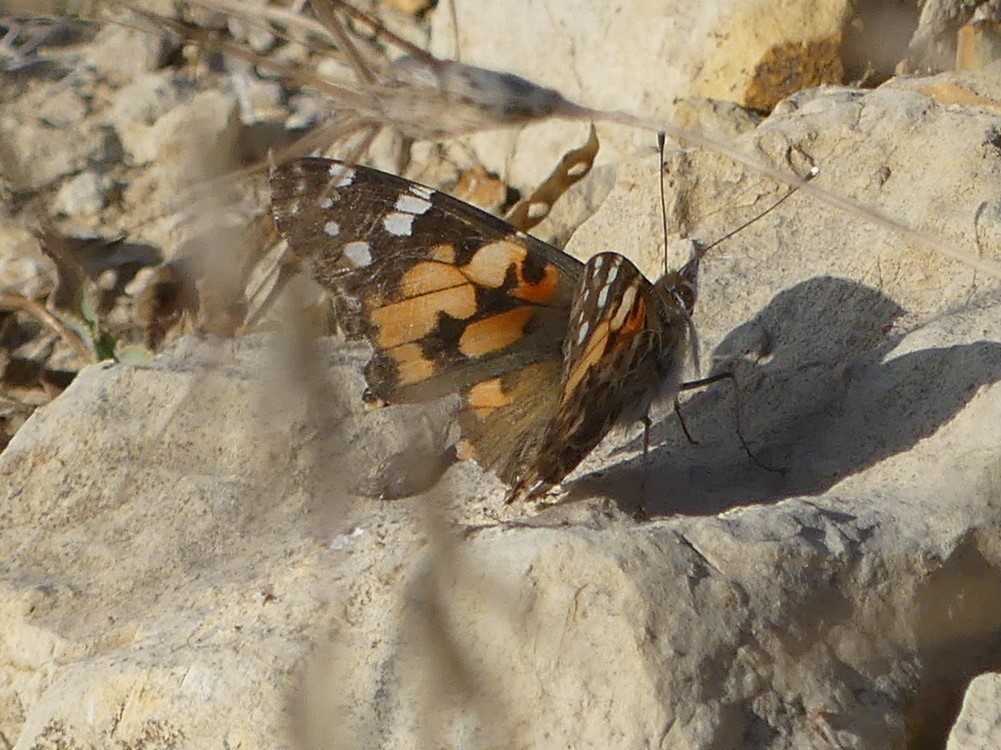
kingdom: Animalia
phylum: Arthropoda
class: Insecta
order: Lepidoptera
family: Nymphalidae
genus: Vanessa
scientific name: Vanessa cardui
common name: Painted lady
